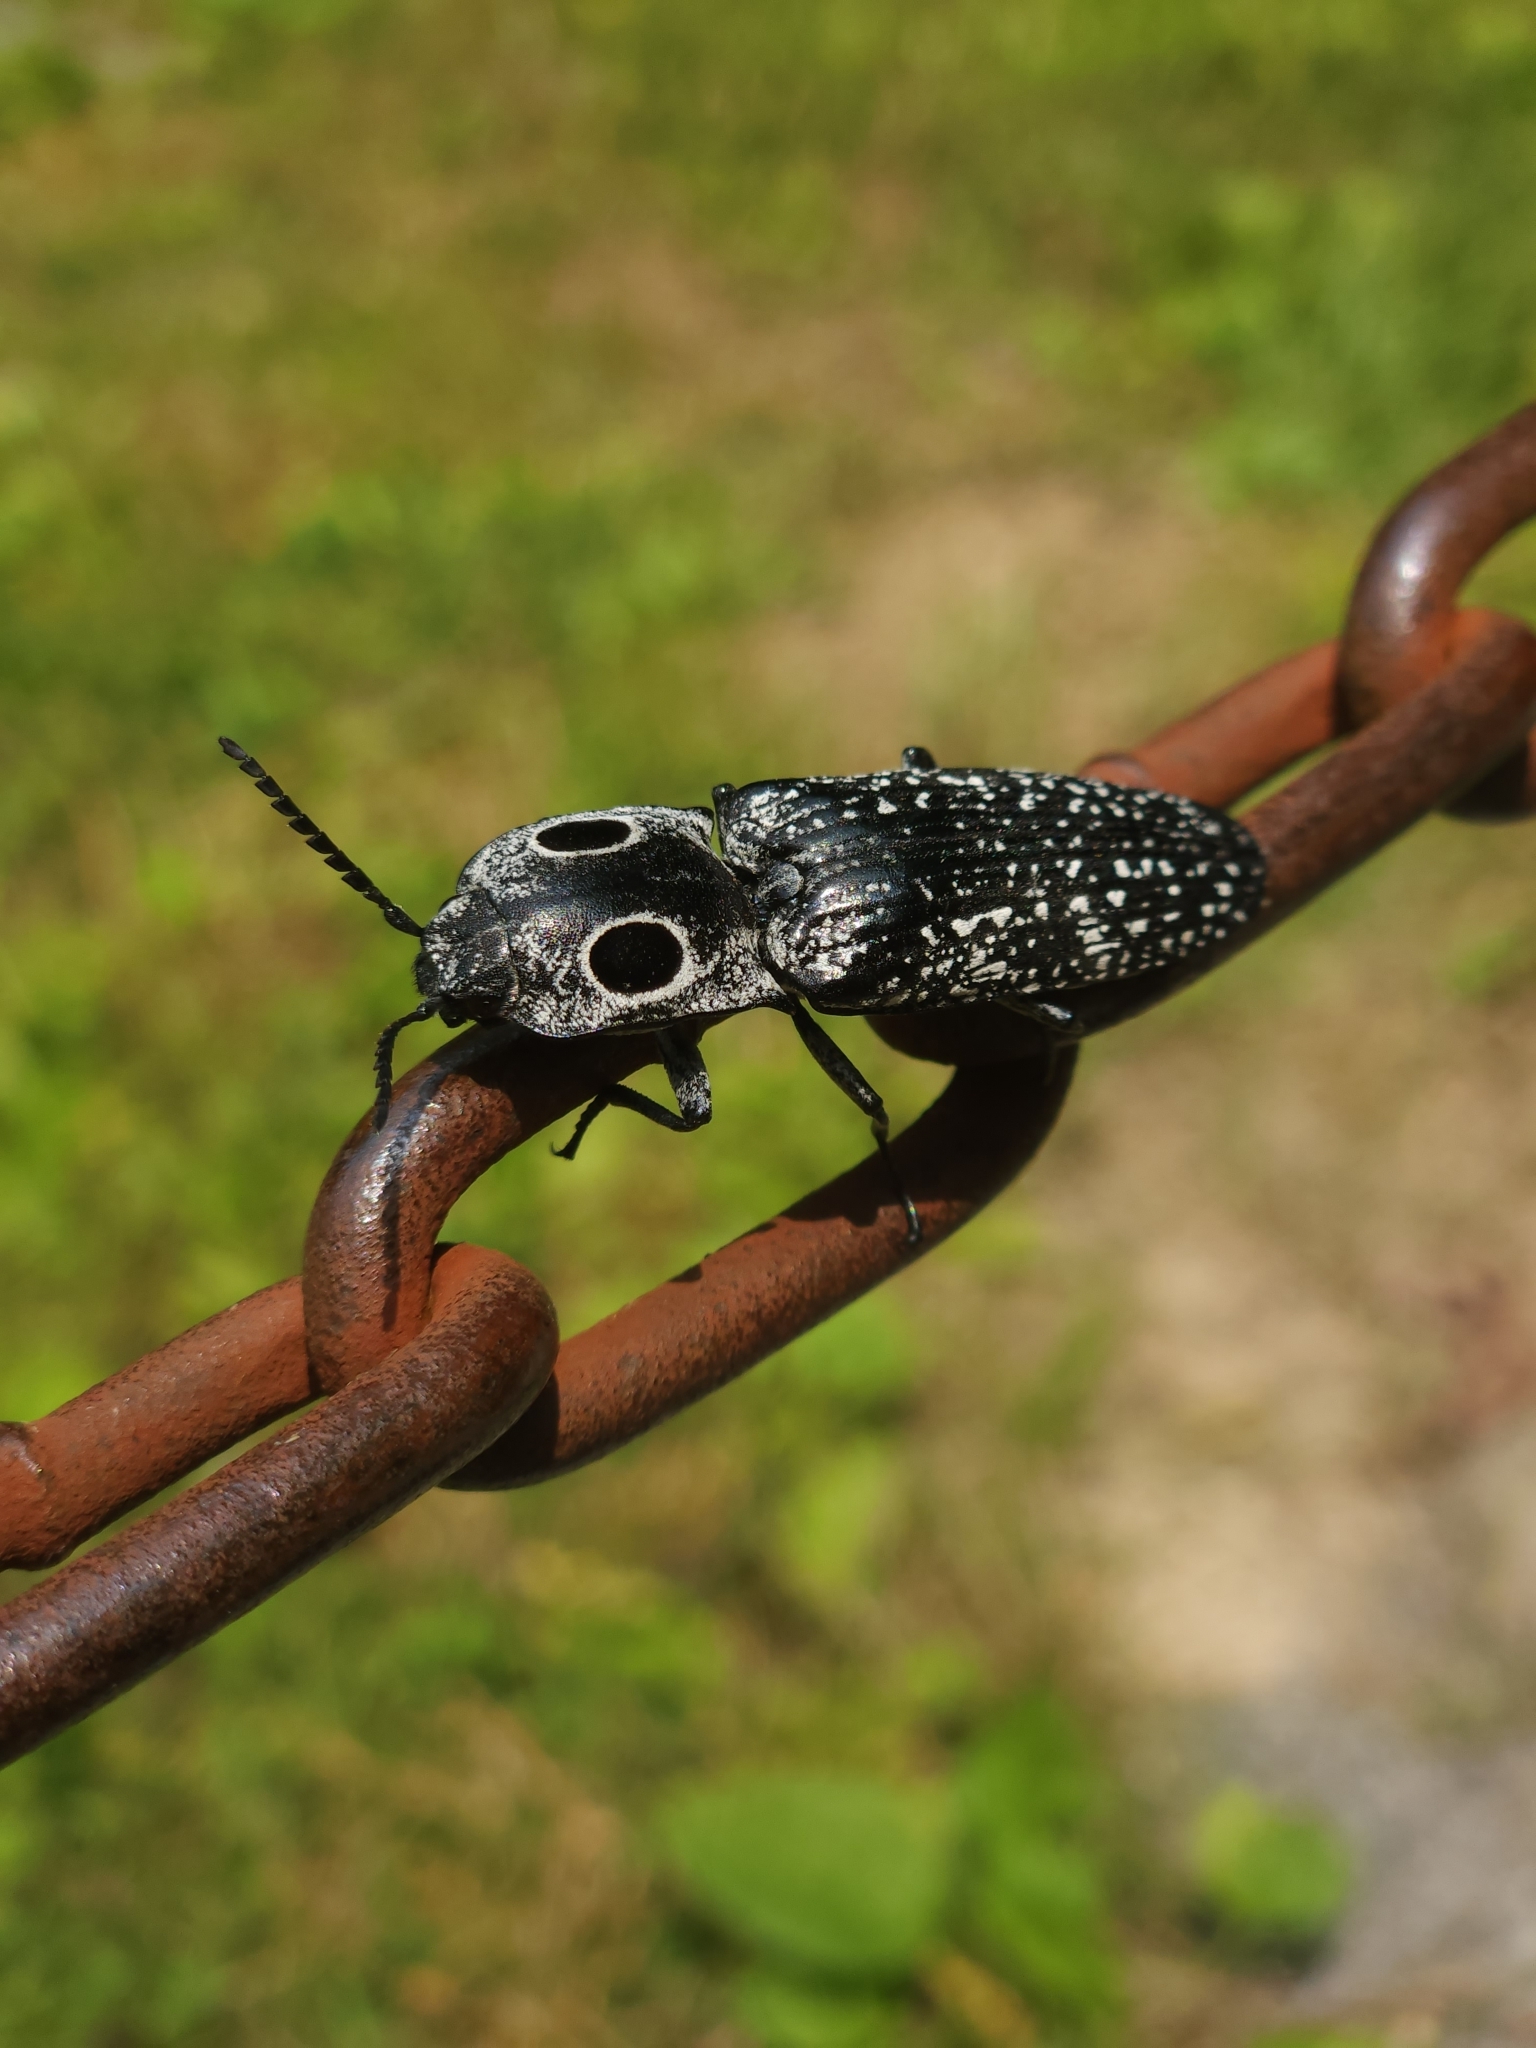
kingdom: Animalia
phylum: Arthropoda
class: Insecta
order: Coleoptera
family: Elateridae
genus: Alaus
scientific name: Alaus oculatus
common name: Eastern eyed click beetle
